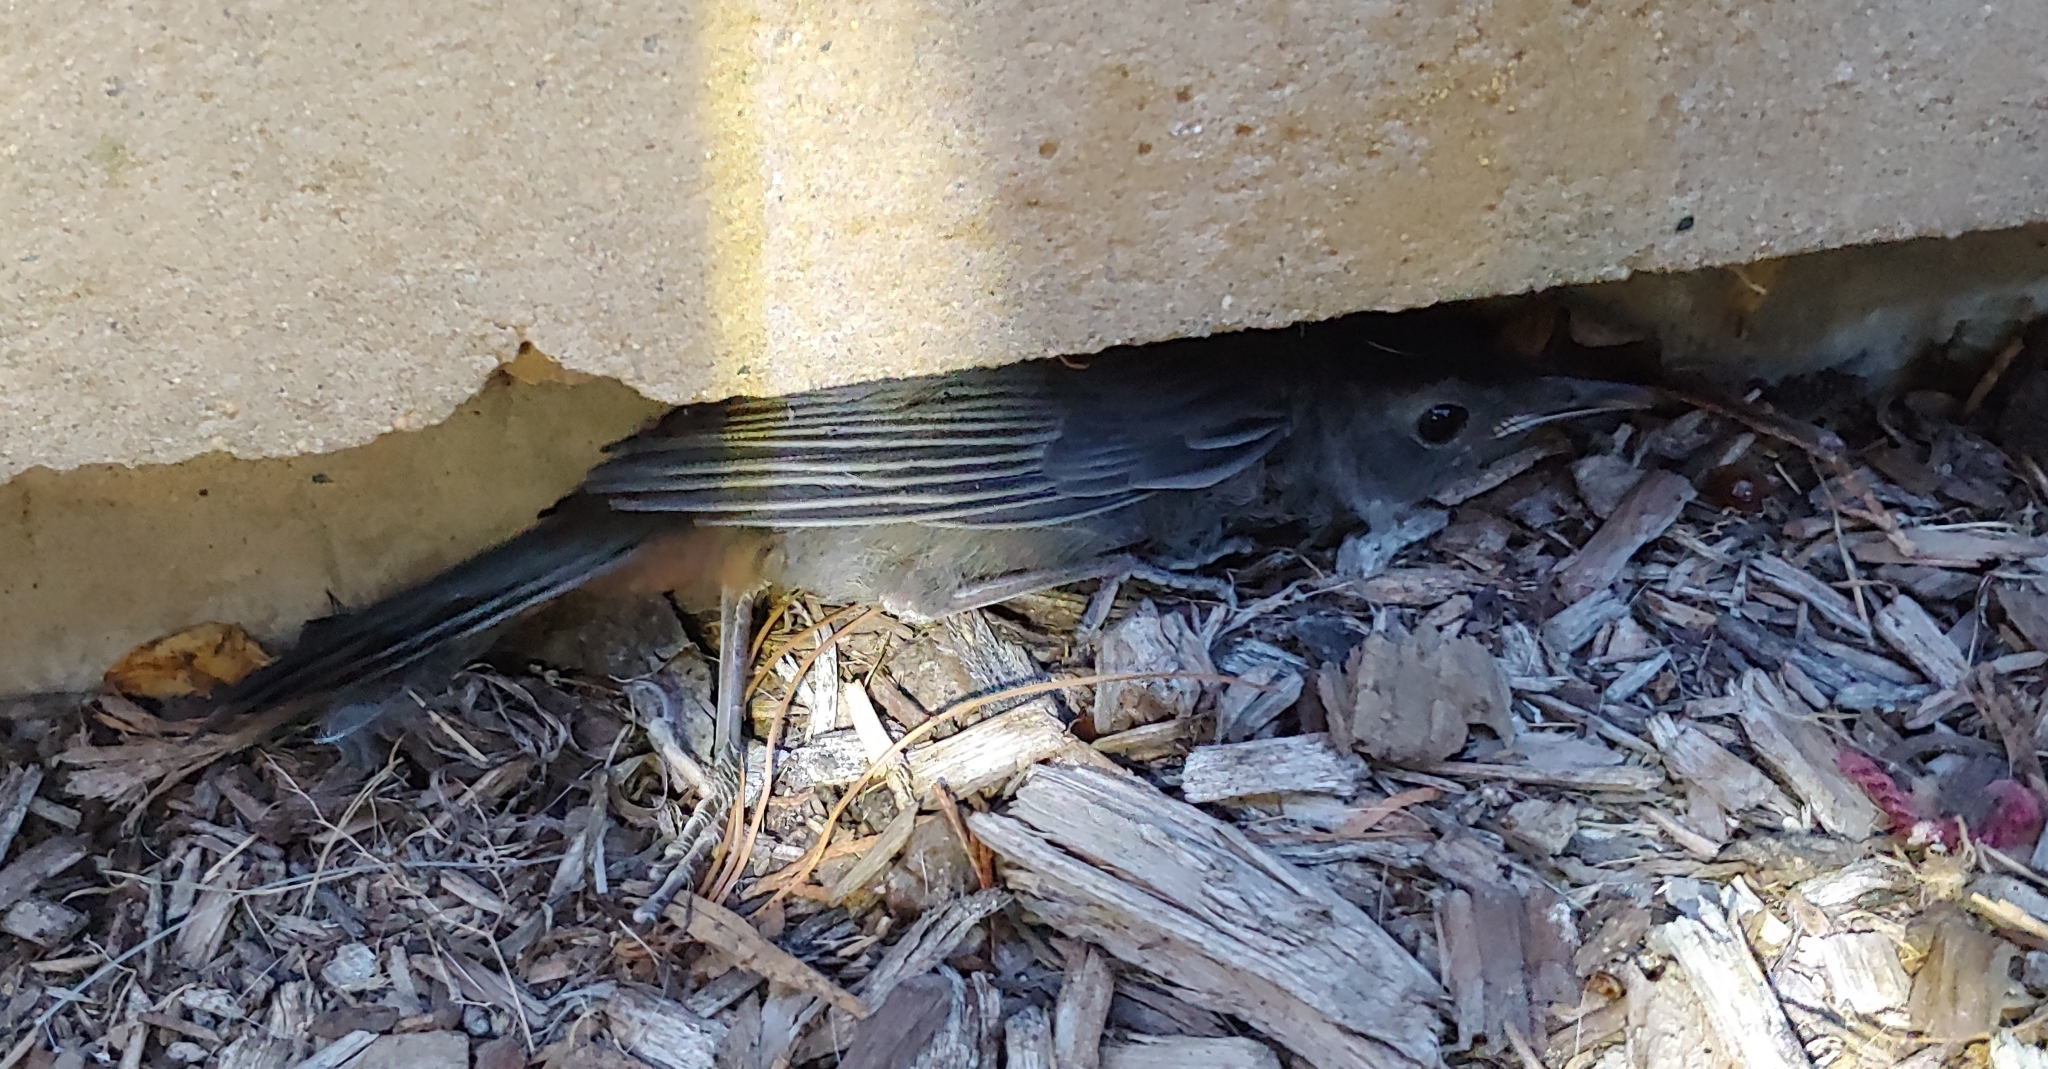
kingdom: Animalia
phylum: Chordata
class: Aves
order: Passeriformes
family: Mimidae
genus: Dumetella
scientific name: Dumetella carolinensis
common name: Gray catbird
